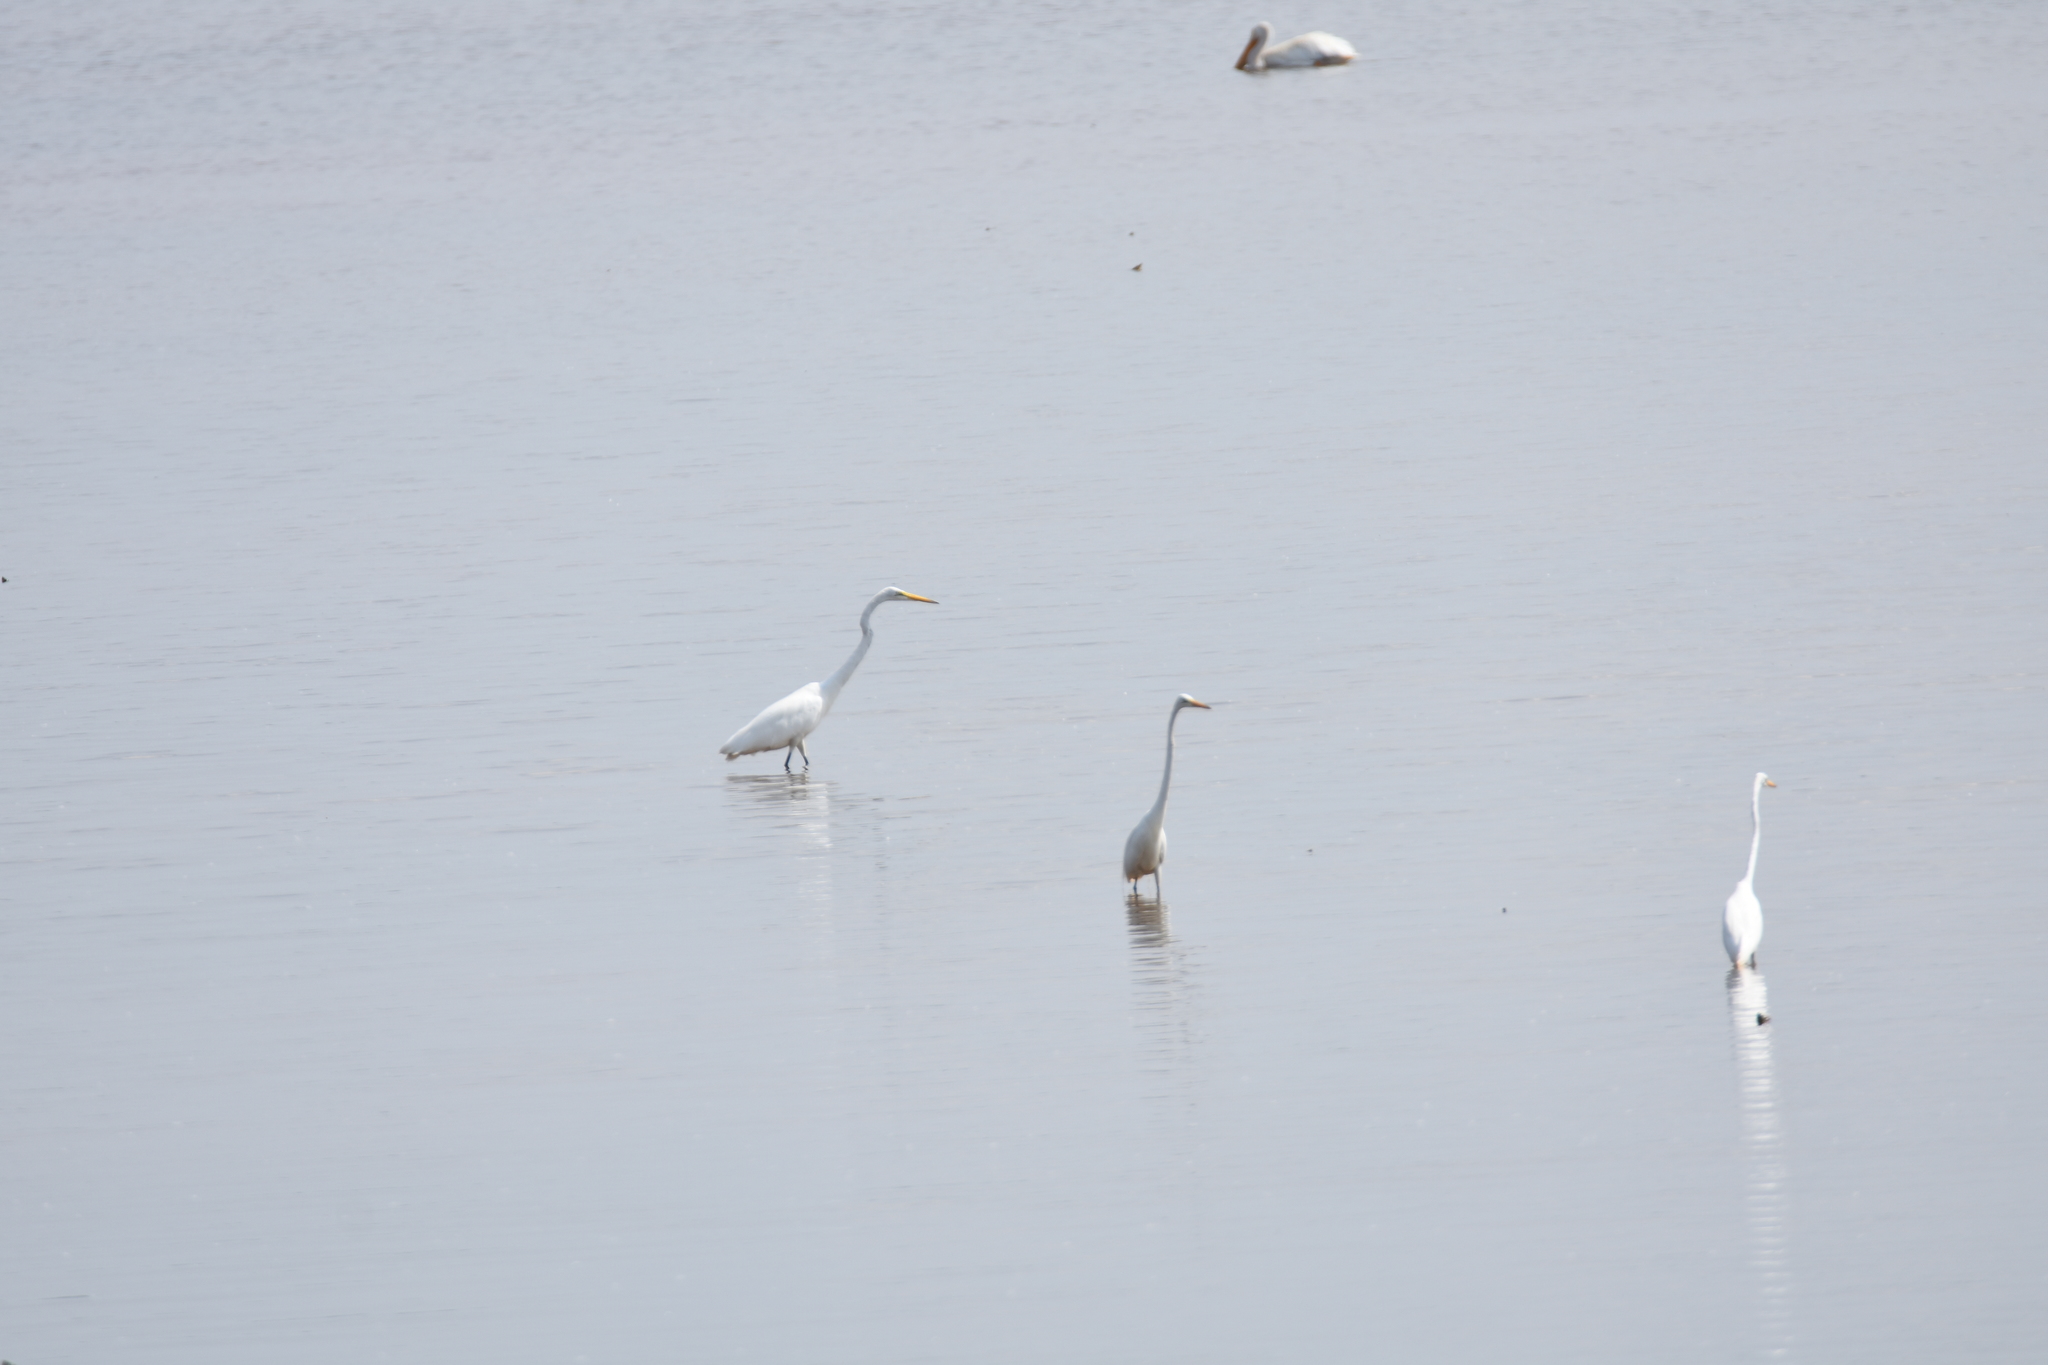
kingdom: Animalia
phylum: Chordata
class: Aves
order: Pelecaniformes
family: Ardeidae
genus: Ardea
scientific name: Ardea alba
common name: Great egret
